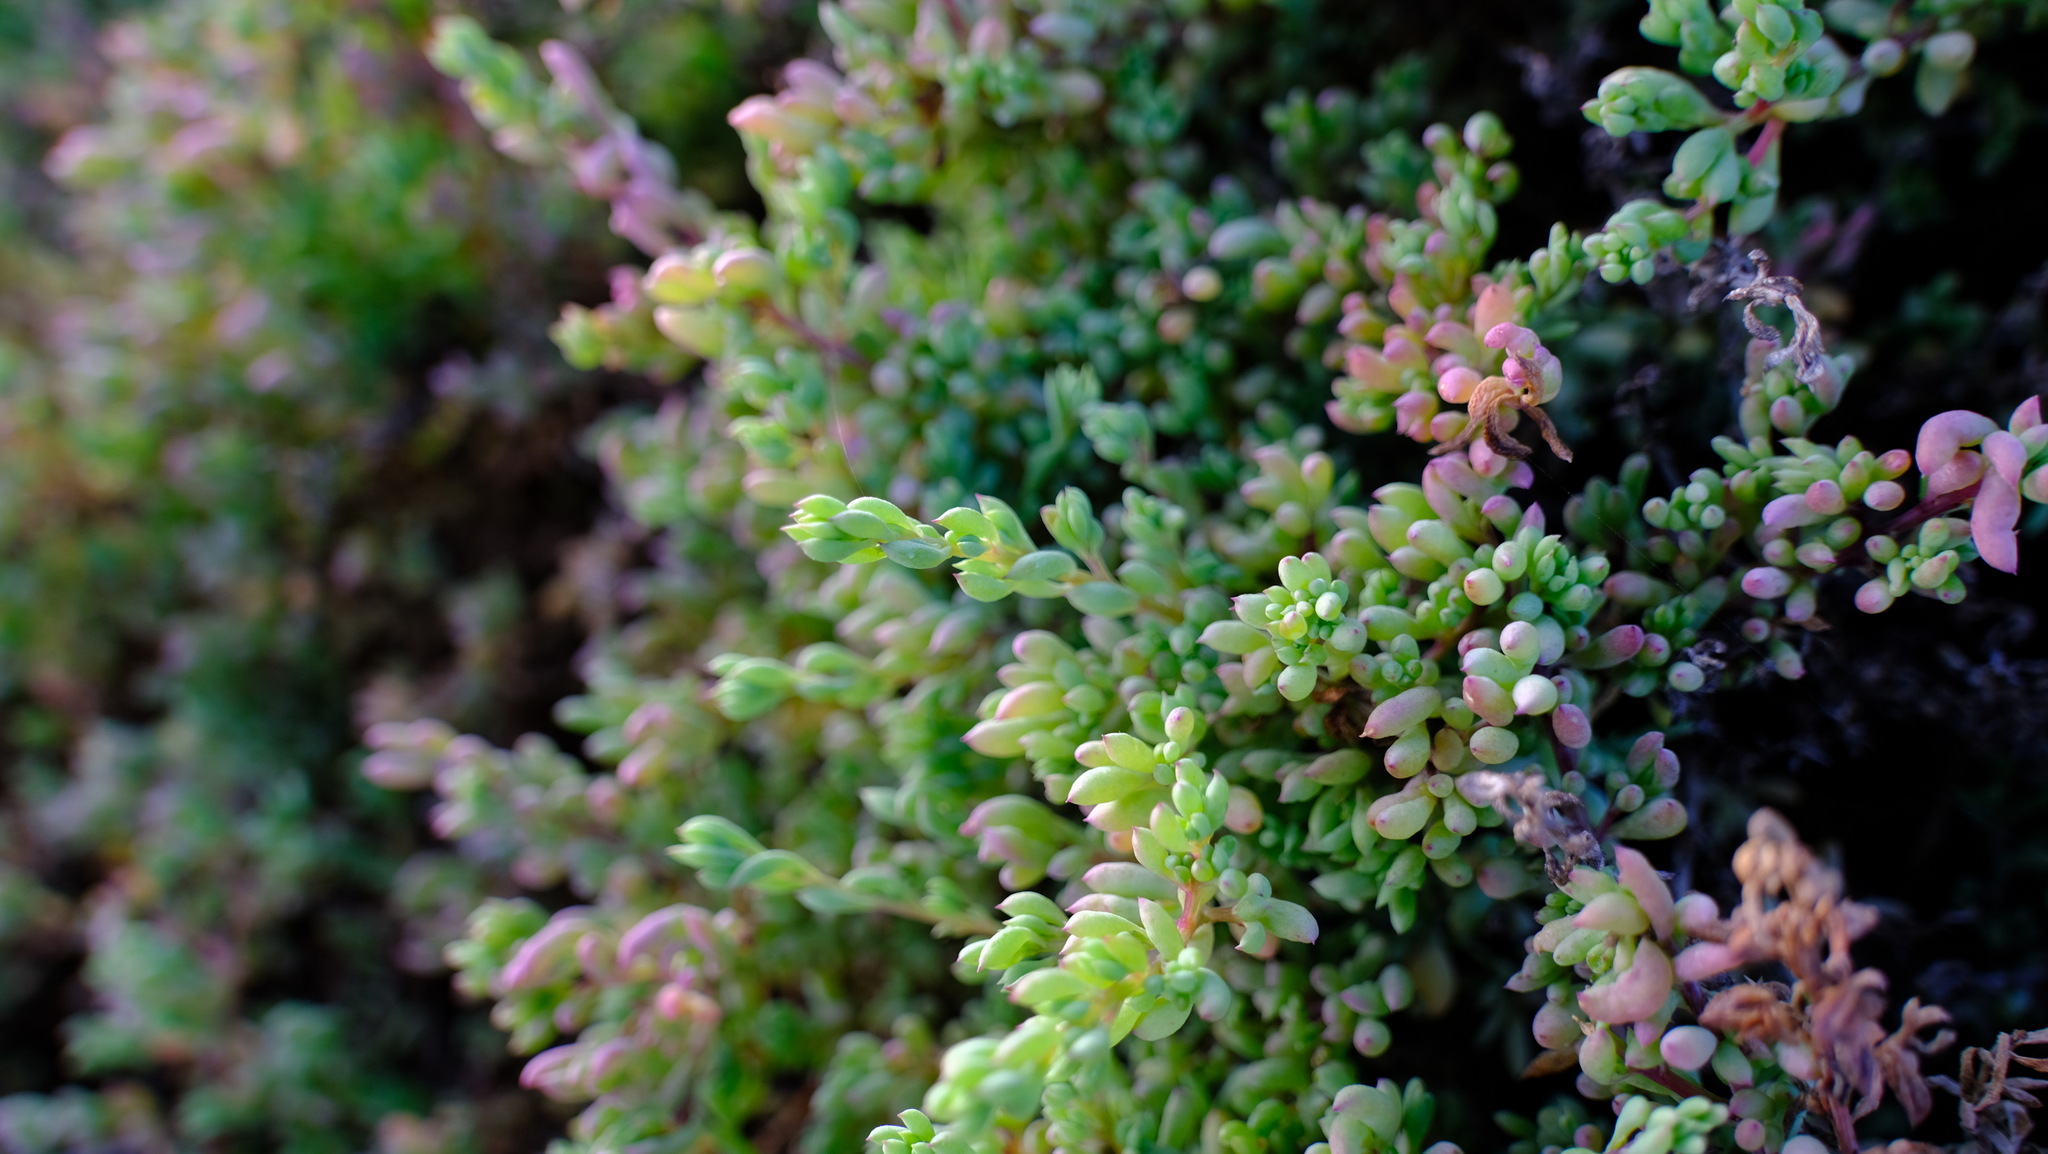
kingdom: Plantae
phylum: Tracheophyta
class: Magnoliopsida
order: Caryophyllales
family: Amaranthaceae
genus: Threlkeldia
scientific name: Threlkeldia diffusa
